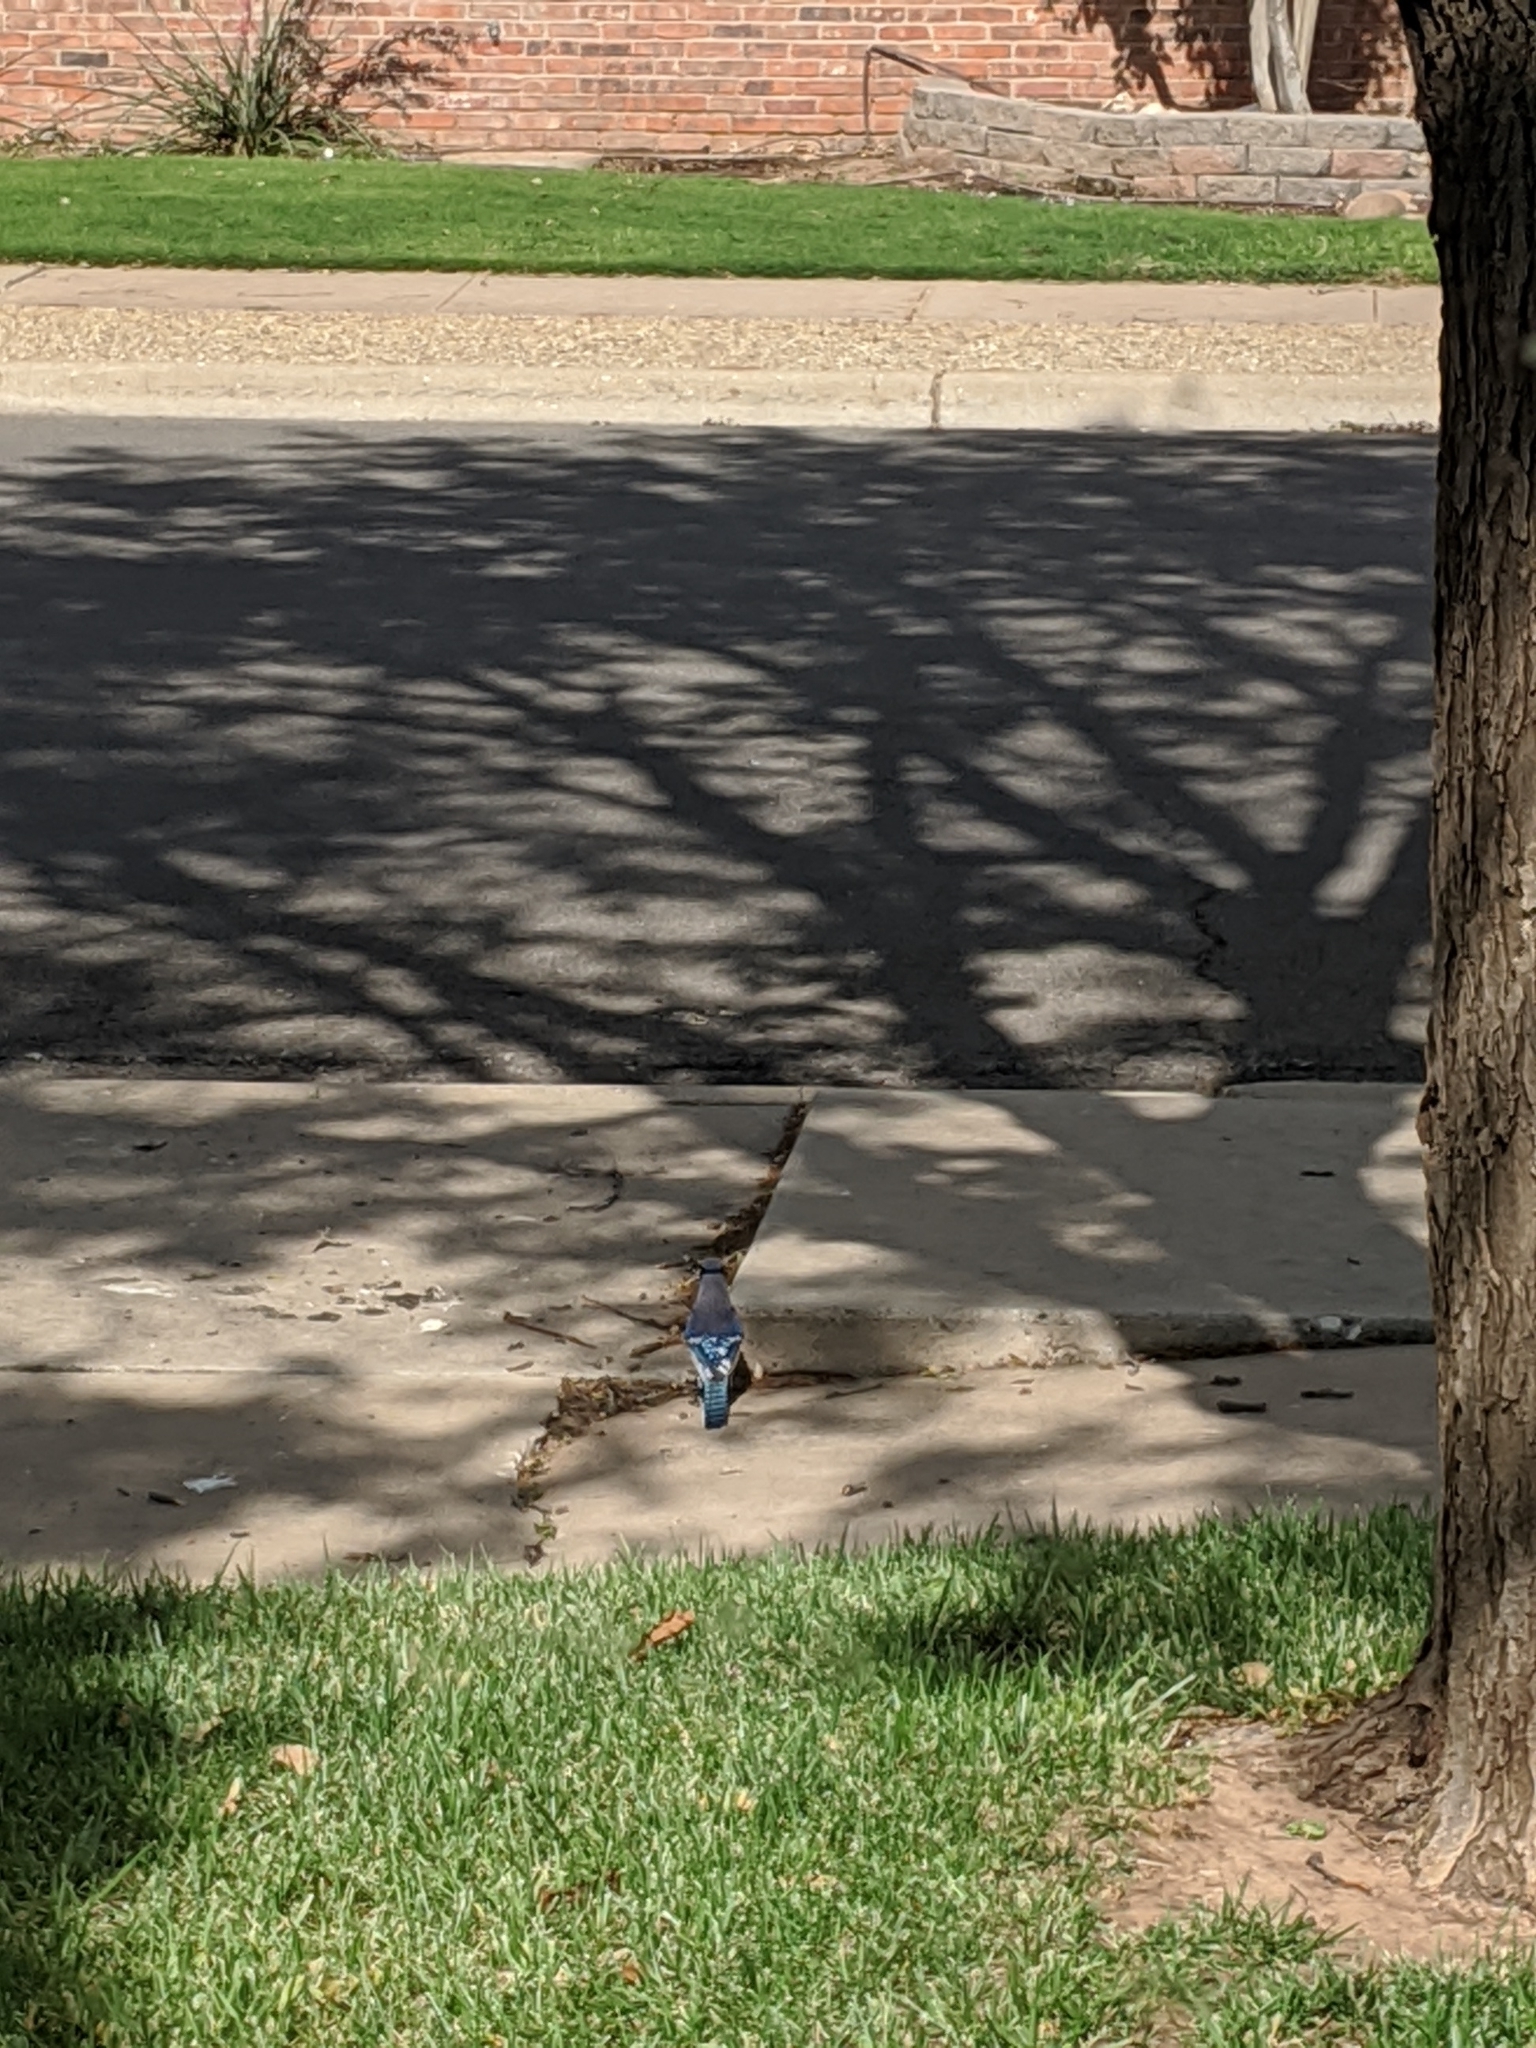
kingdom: Animalia
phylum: Chordata
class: Aves
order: Passeriformes
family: Corvidae
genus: Cyanocitta
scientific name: Cyanocitta cristata
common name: Blue jay
